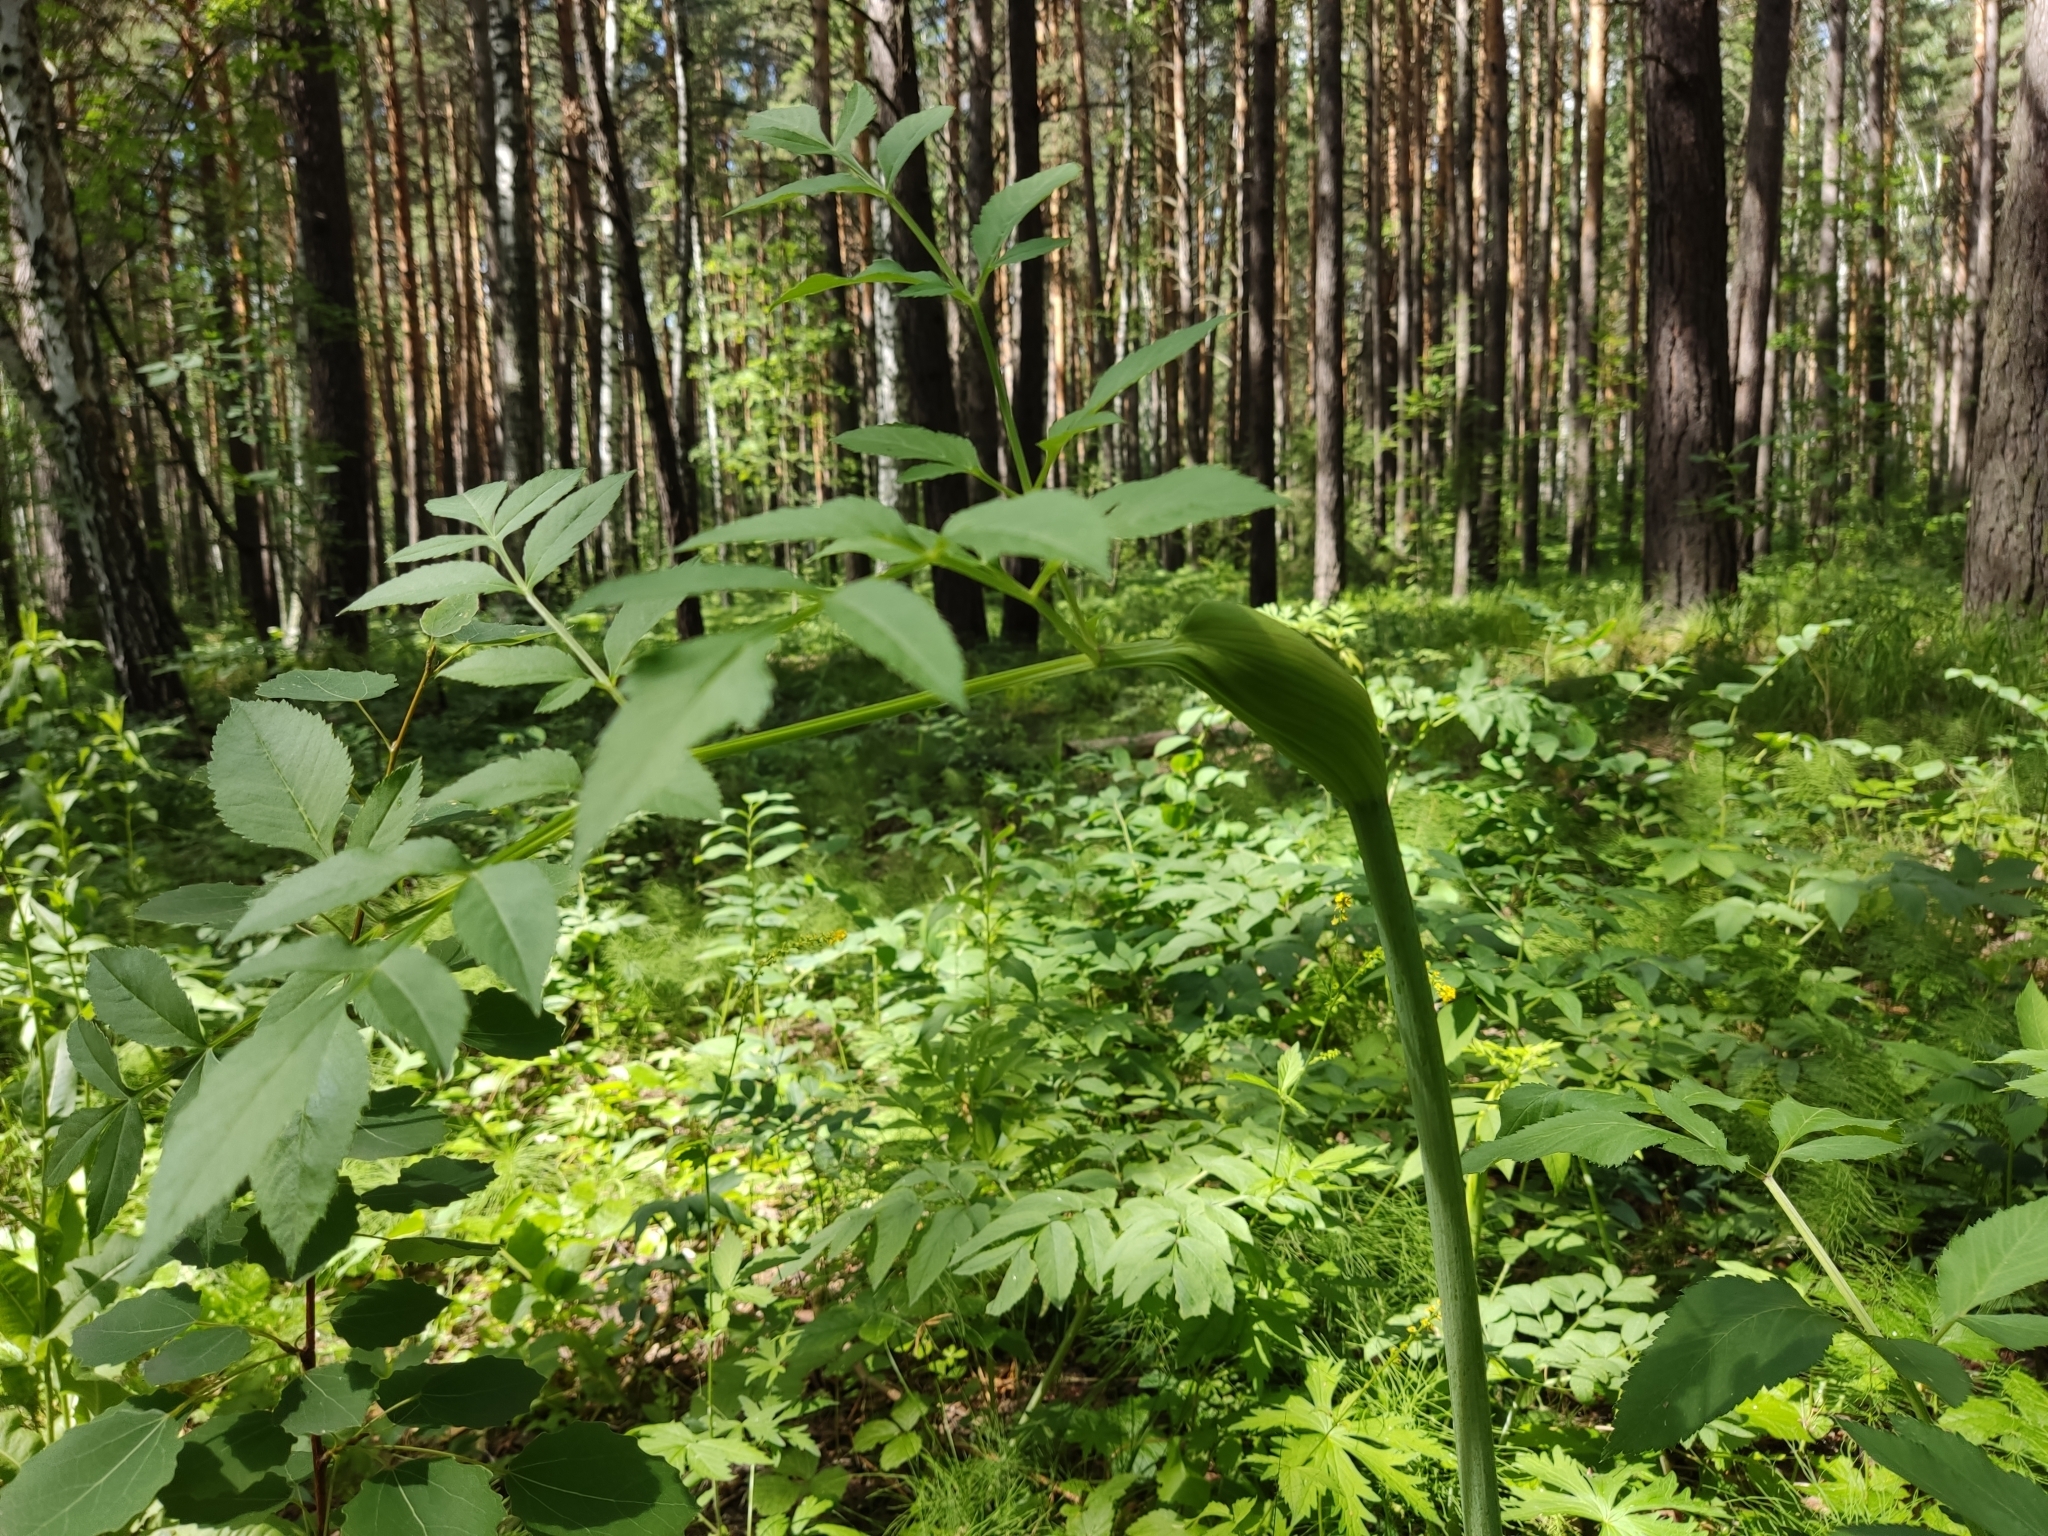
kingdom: Plantae
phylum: Tracheophyta
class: Magnoliopsida
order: Apiales
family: Apiaceae
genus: Angelica
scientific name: Angelica sylvestris
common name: Wild angelica
